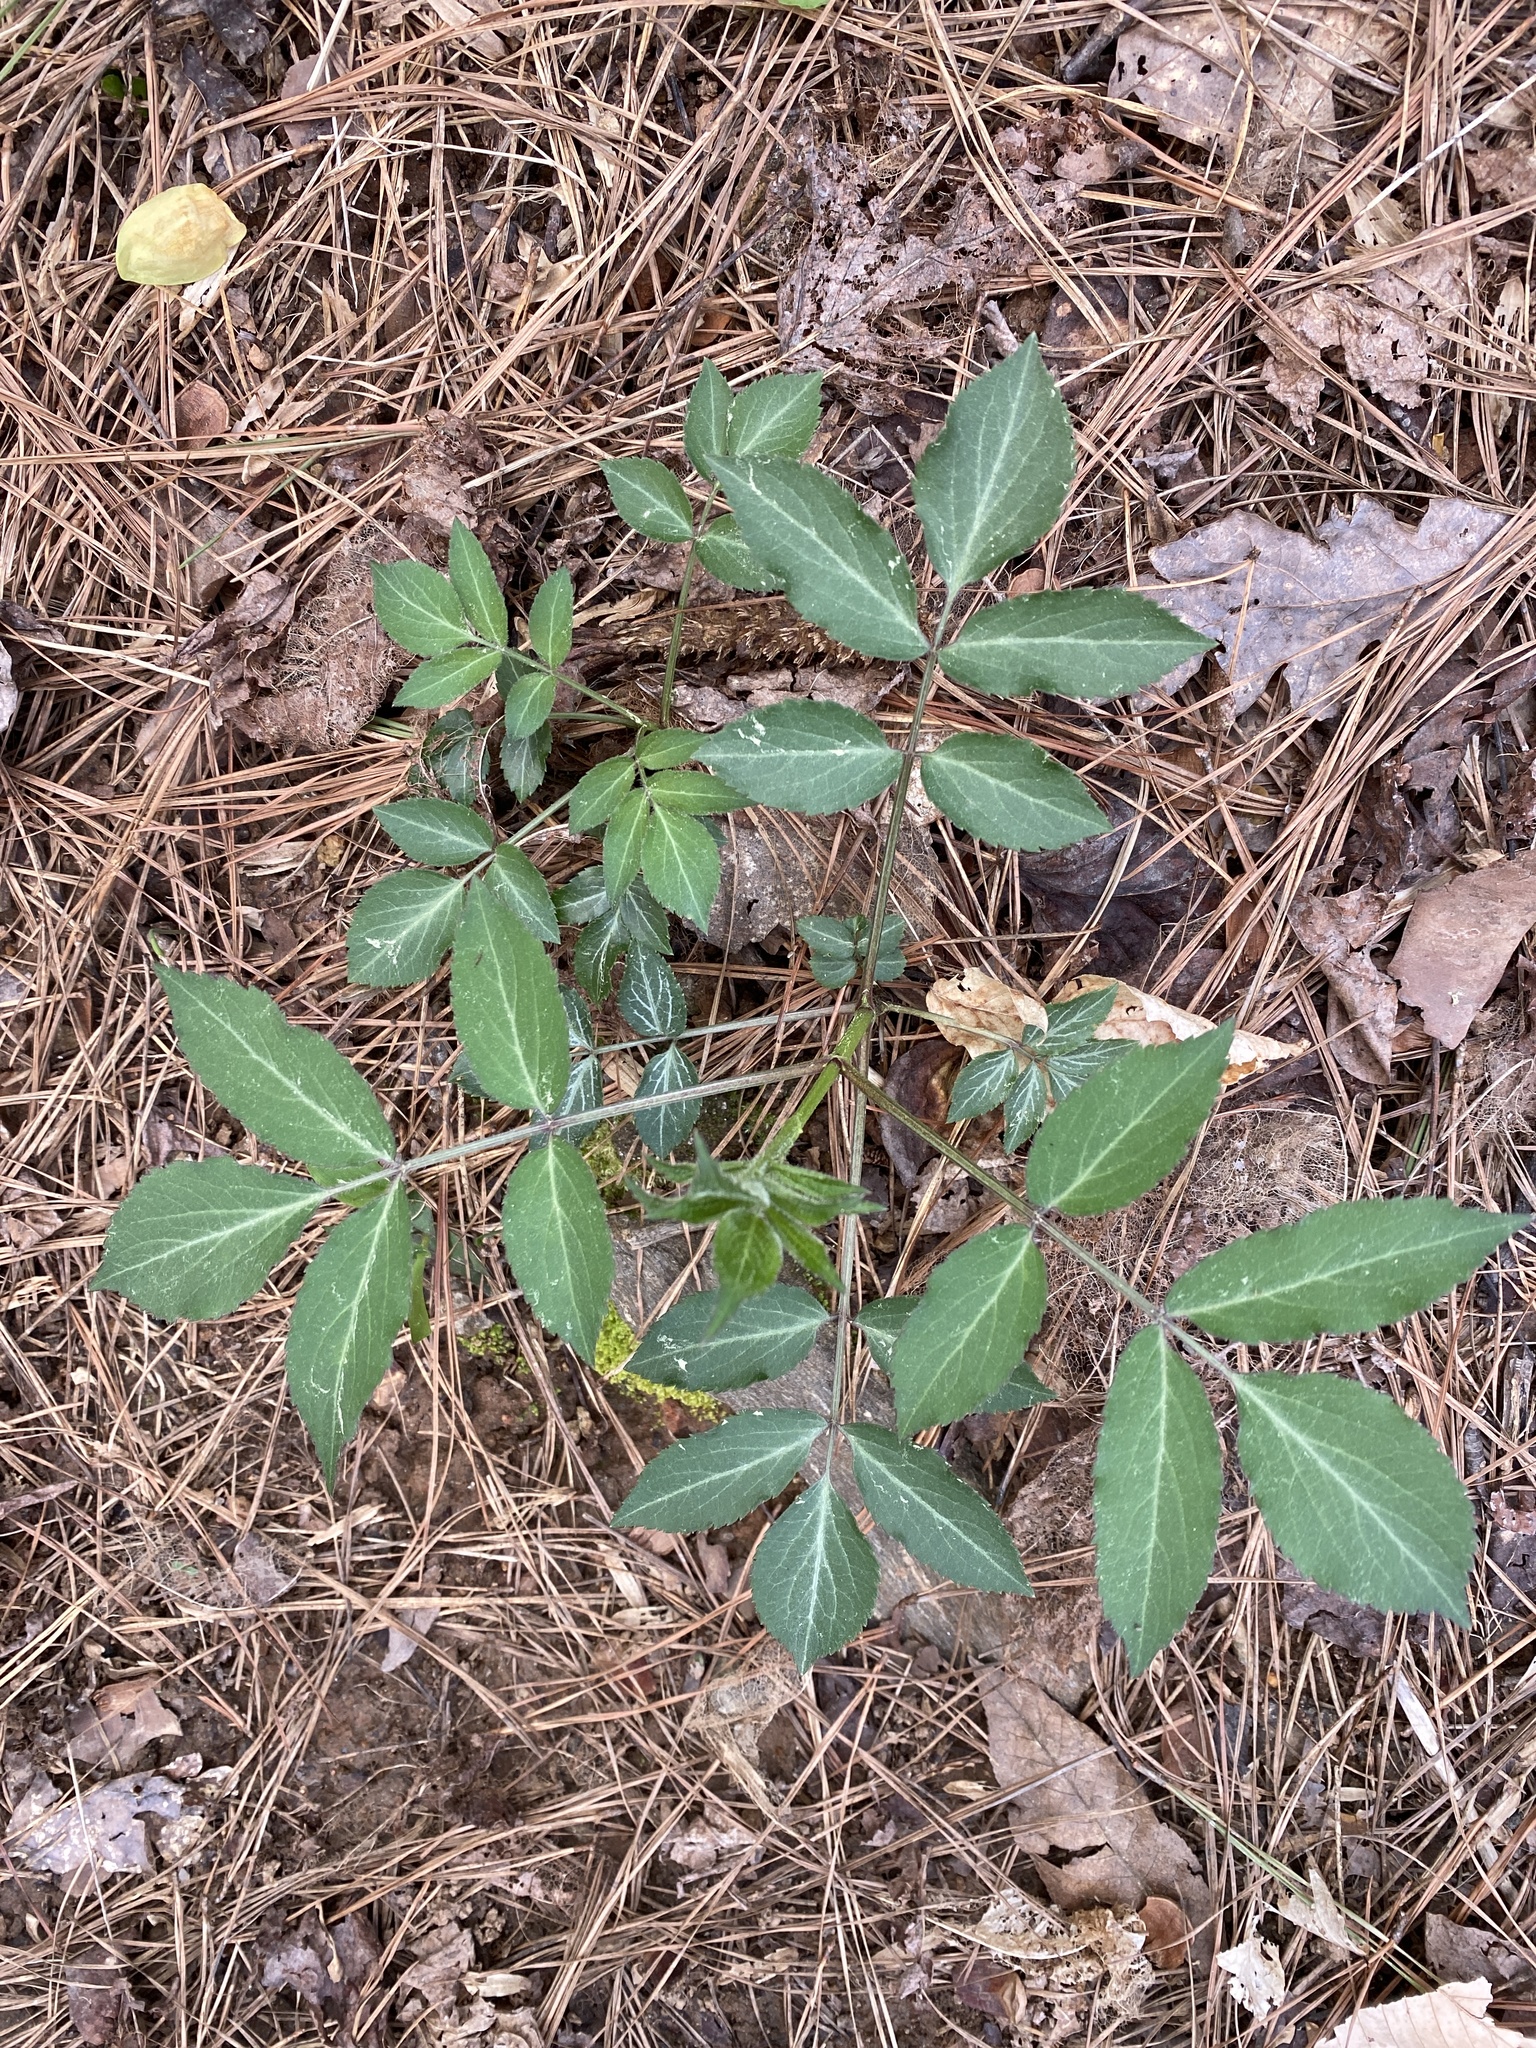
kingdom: Plantae
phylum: Tracheophyta
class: Magnoliopsida
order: Dipsacales
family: Viburnaceae
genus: Sambucus
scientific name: Sambucus canadensis
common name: American elder
